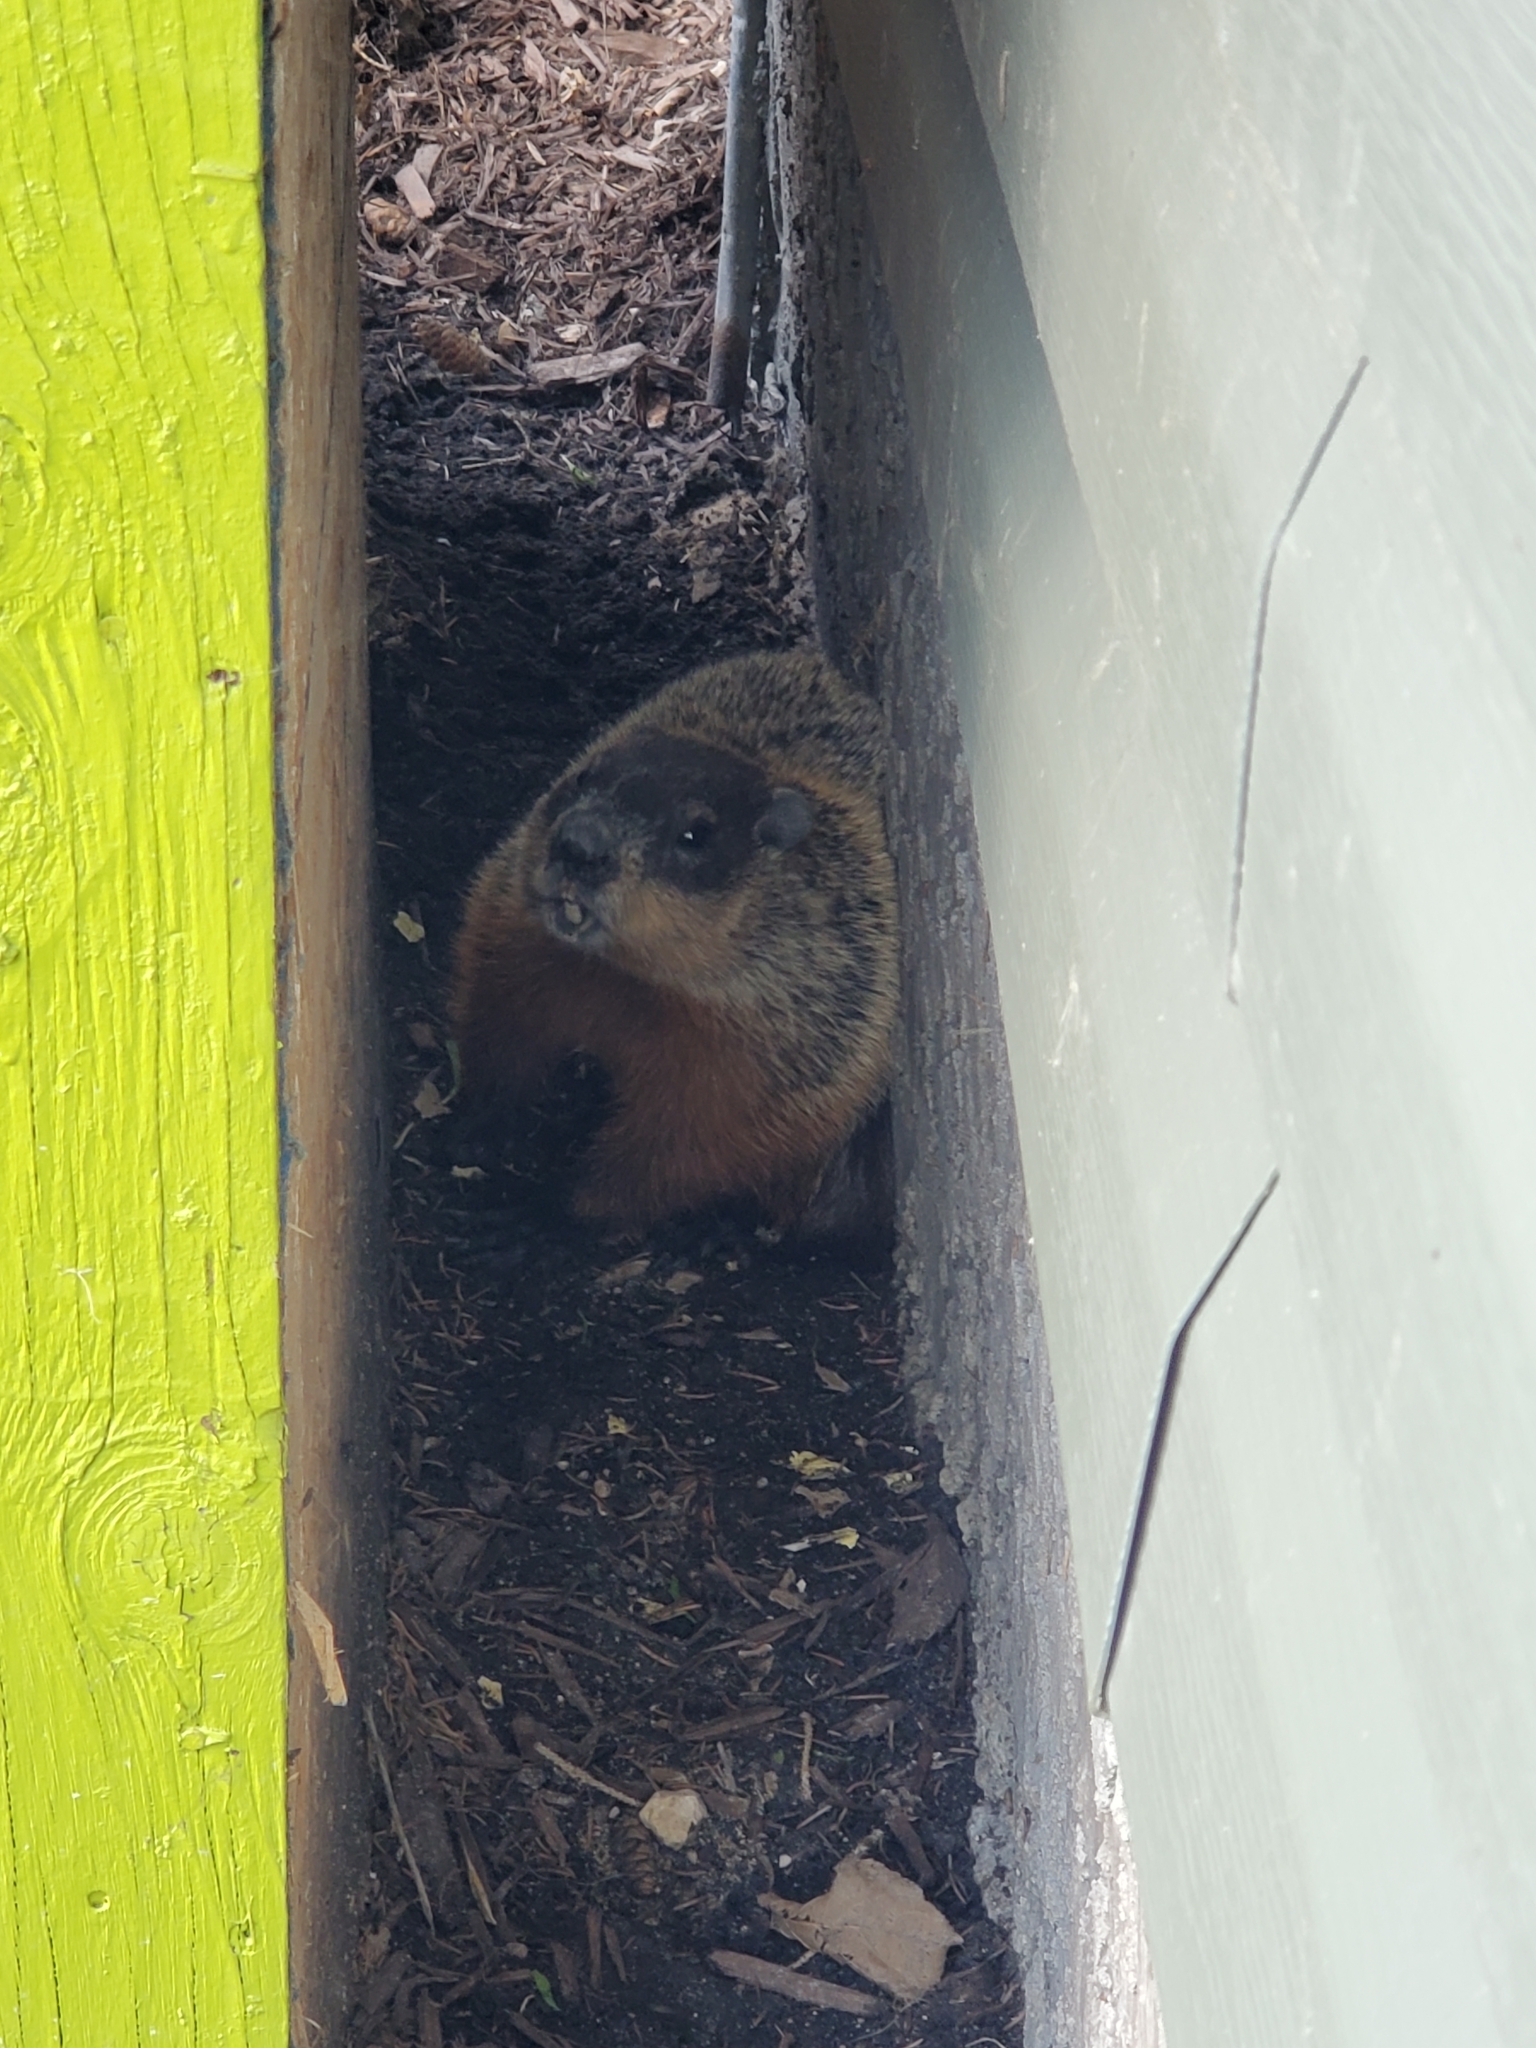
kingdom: Animalia
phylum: Chordata
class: Mammalia
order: Rodentia
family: Sciuridae
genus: Marmota
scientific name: Marmota monax
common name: Groundhog
